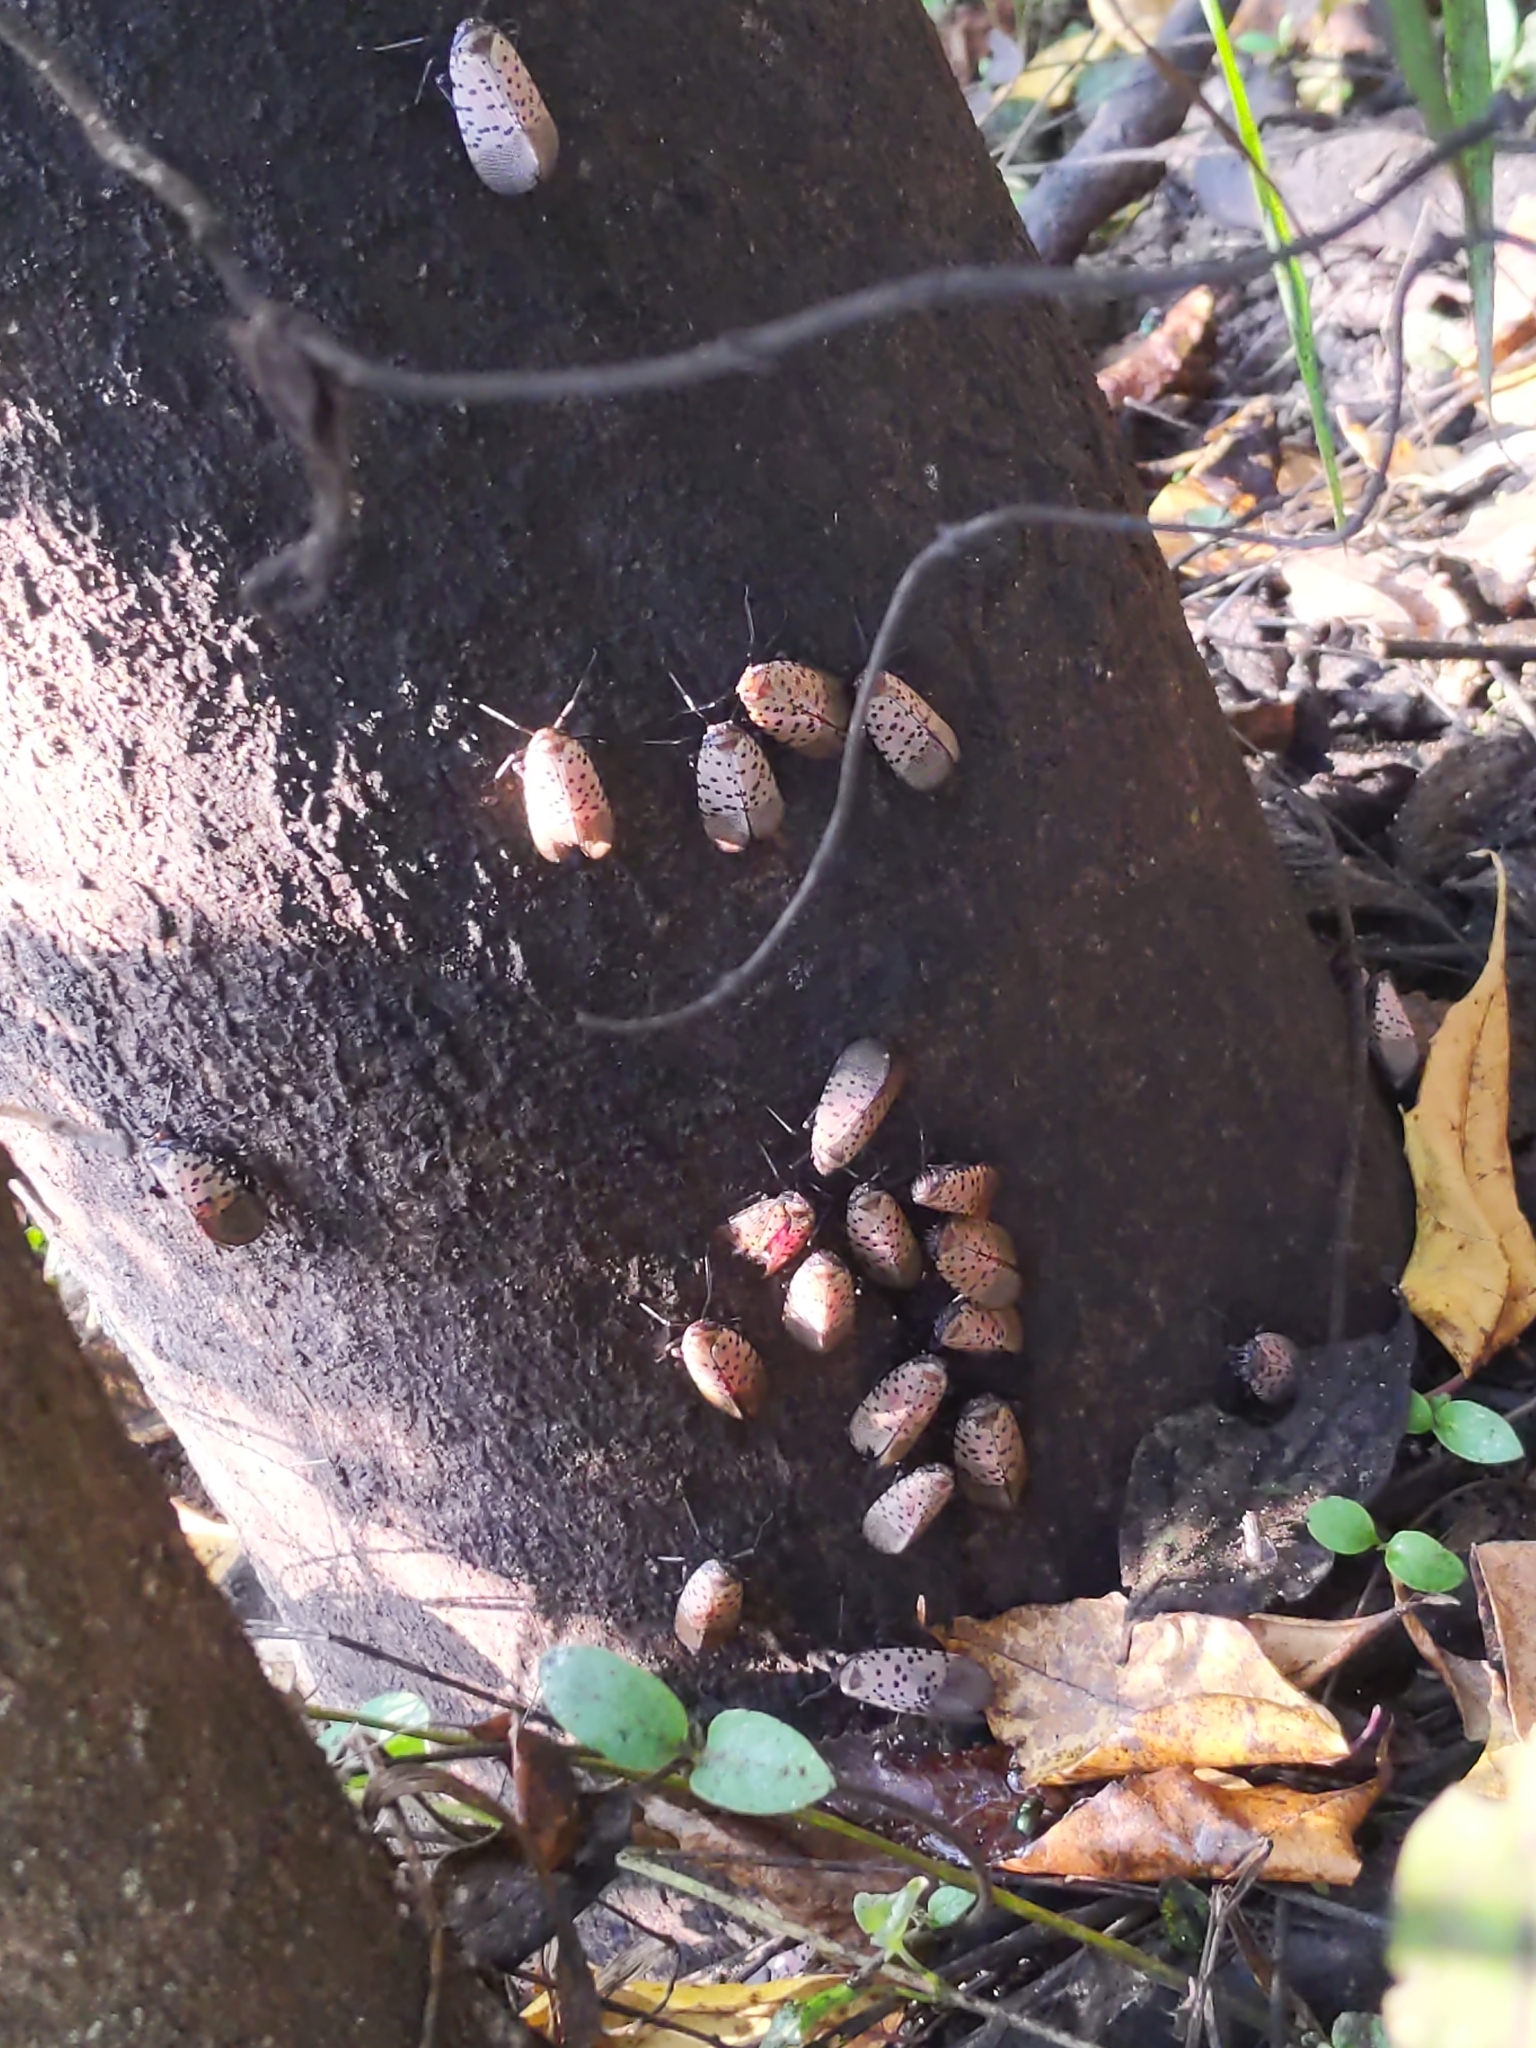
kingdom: Animalia
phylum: Arthropoda
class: Insecta
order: Hemiptera
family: Fulgoridae
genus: Lycorma
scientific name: Lycorma delicatula
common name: Spotted lanternfly
